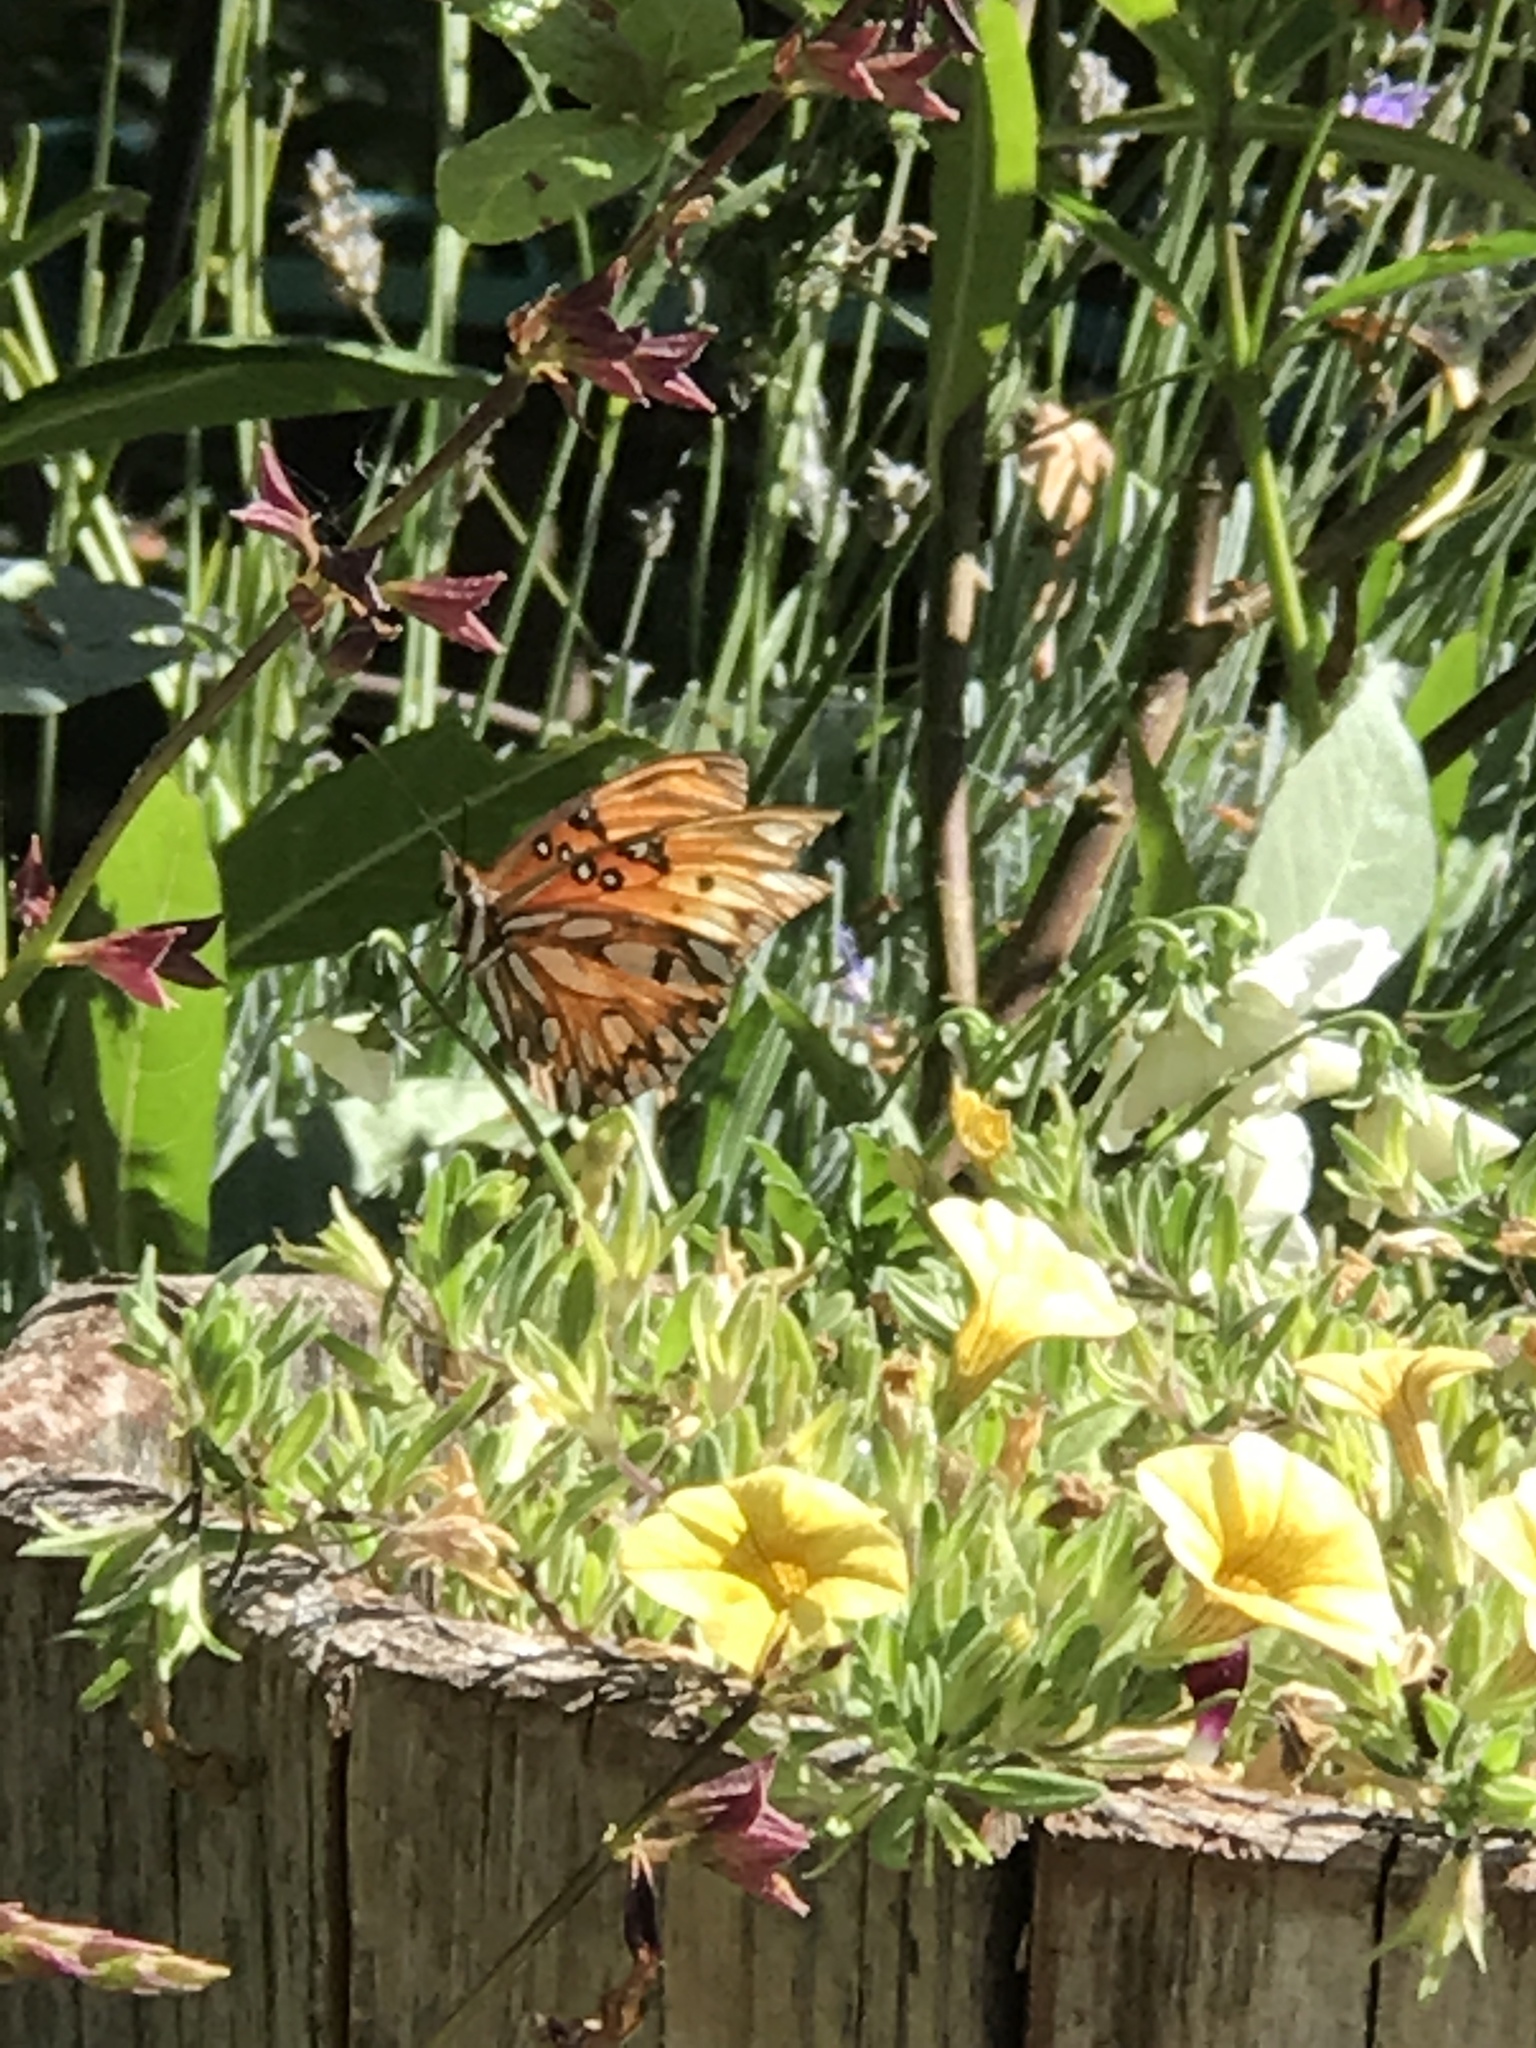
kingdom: Animalia
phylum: Arthropoda
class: Insecta
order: Lepidoptera
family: Nymphalidae
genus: Dione
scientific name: Dione vanillae
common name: Gulf fritillary
